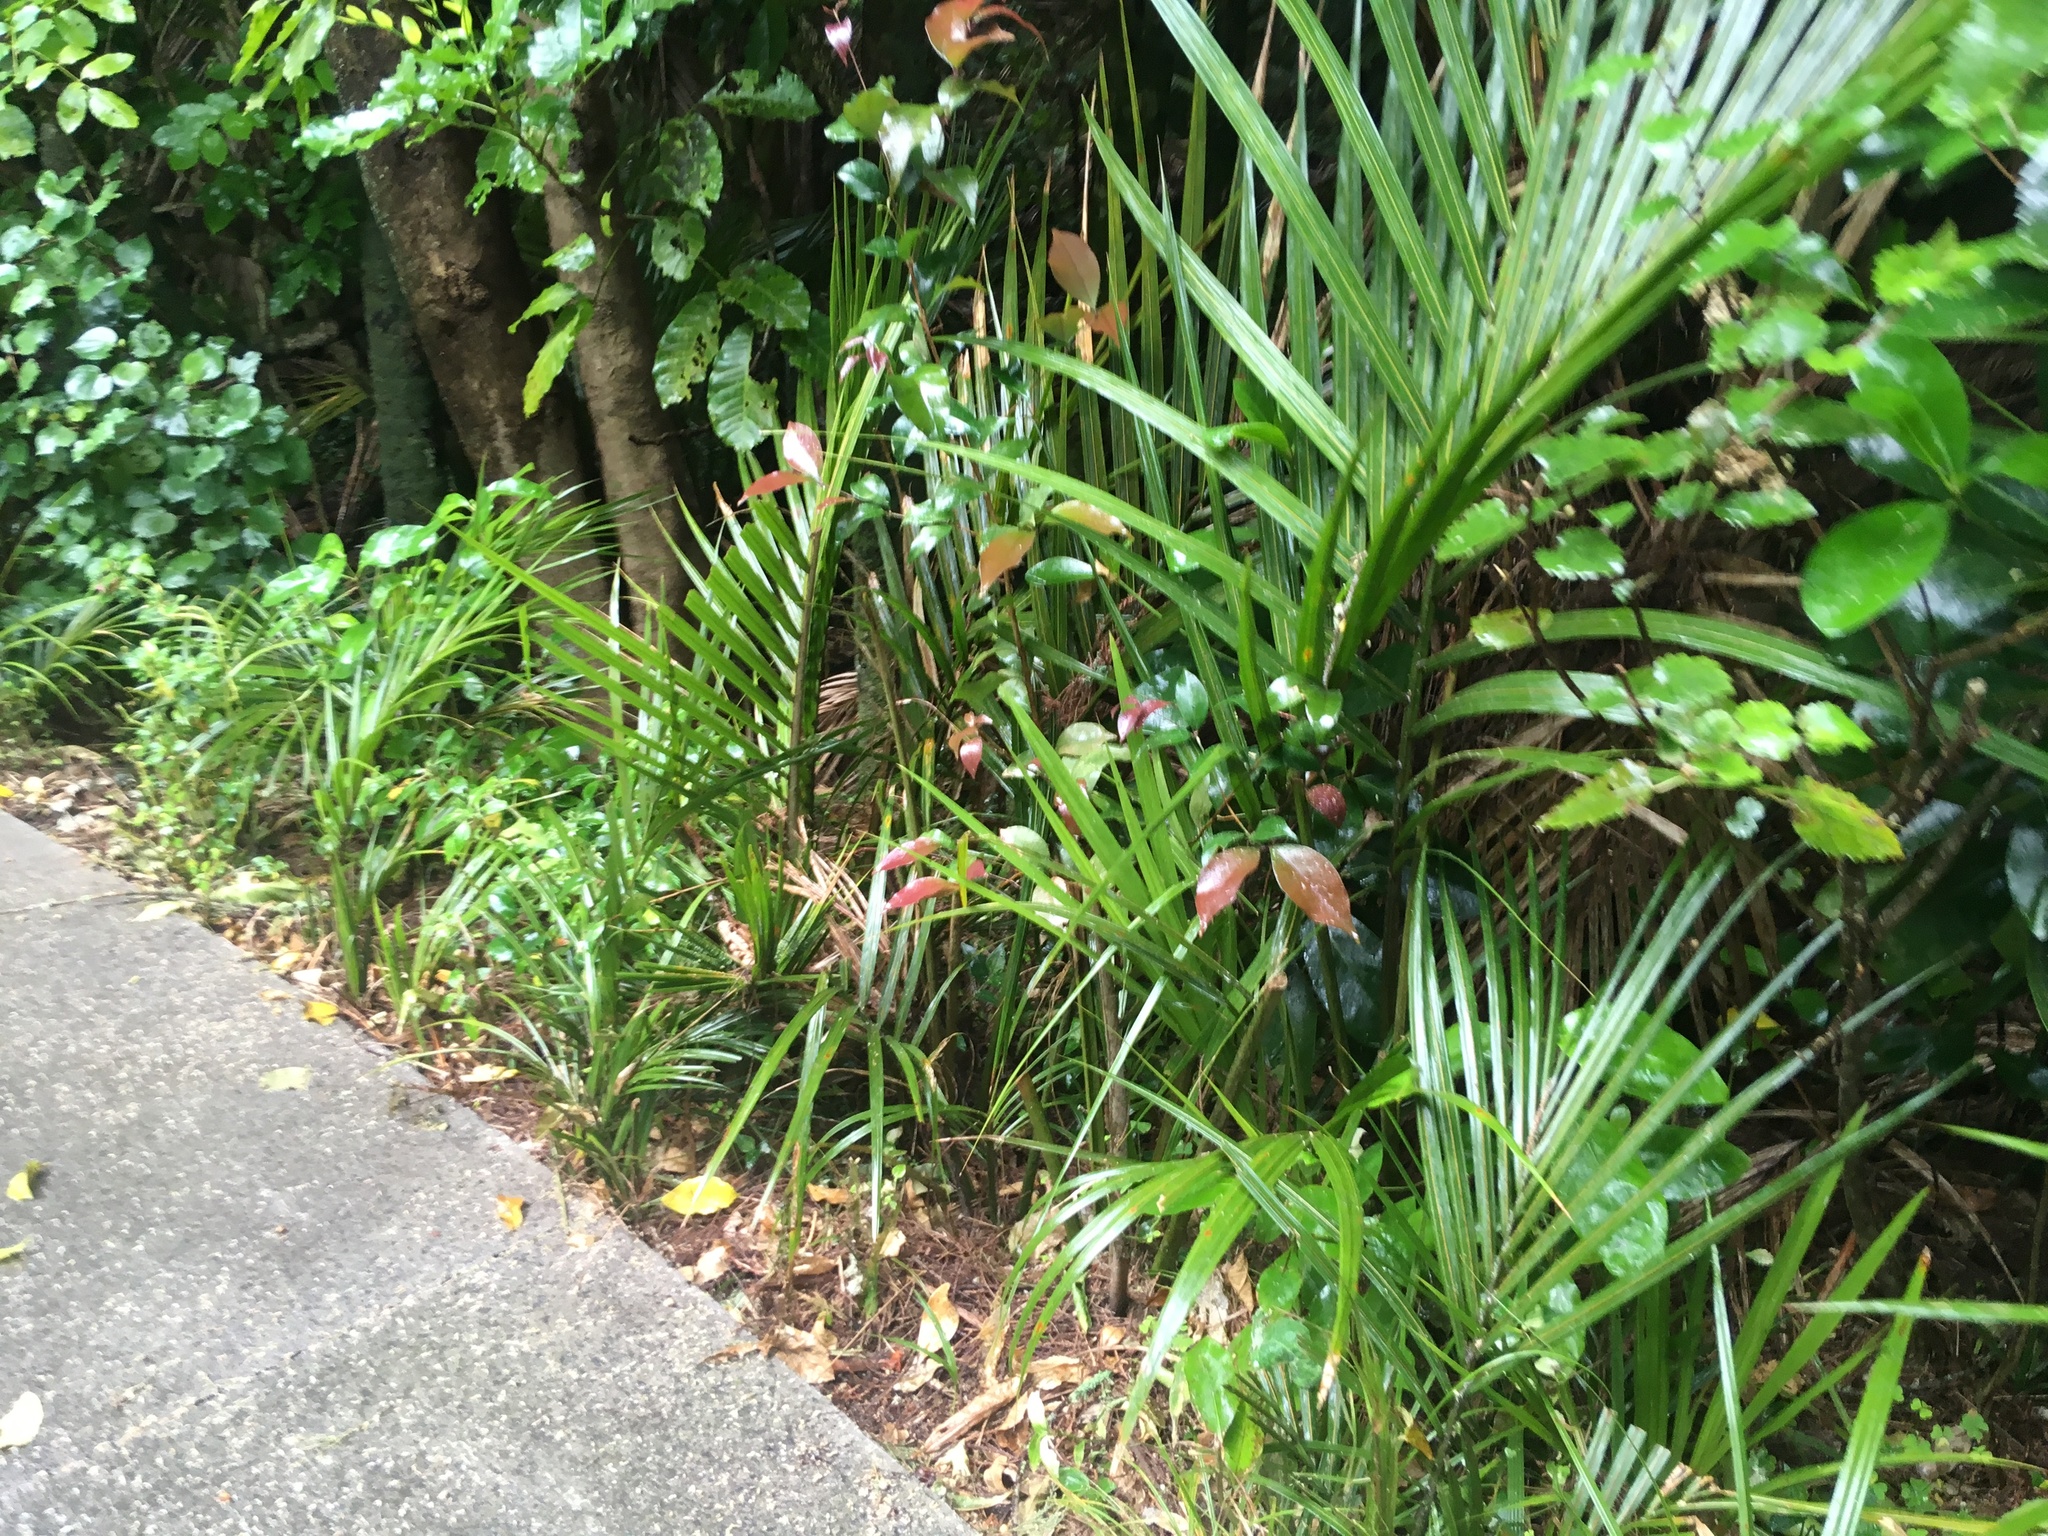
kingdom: Plantae
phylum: Tracheophyta
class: Liliopsida
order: Arecales
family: Arecaceae
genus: Rhopalostylis
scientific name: Rhopalostylis sapida
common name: Feather-duster palm
